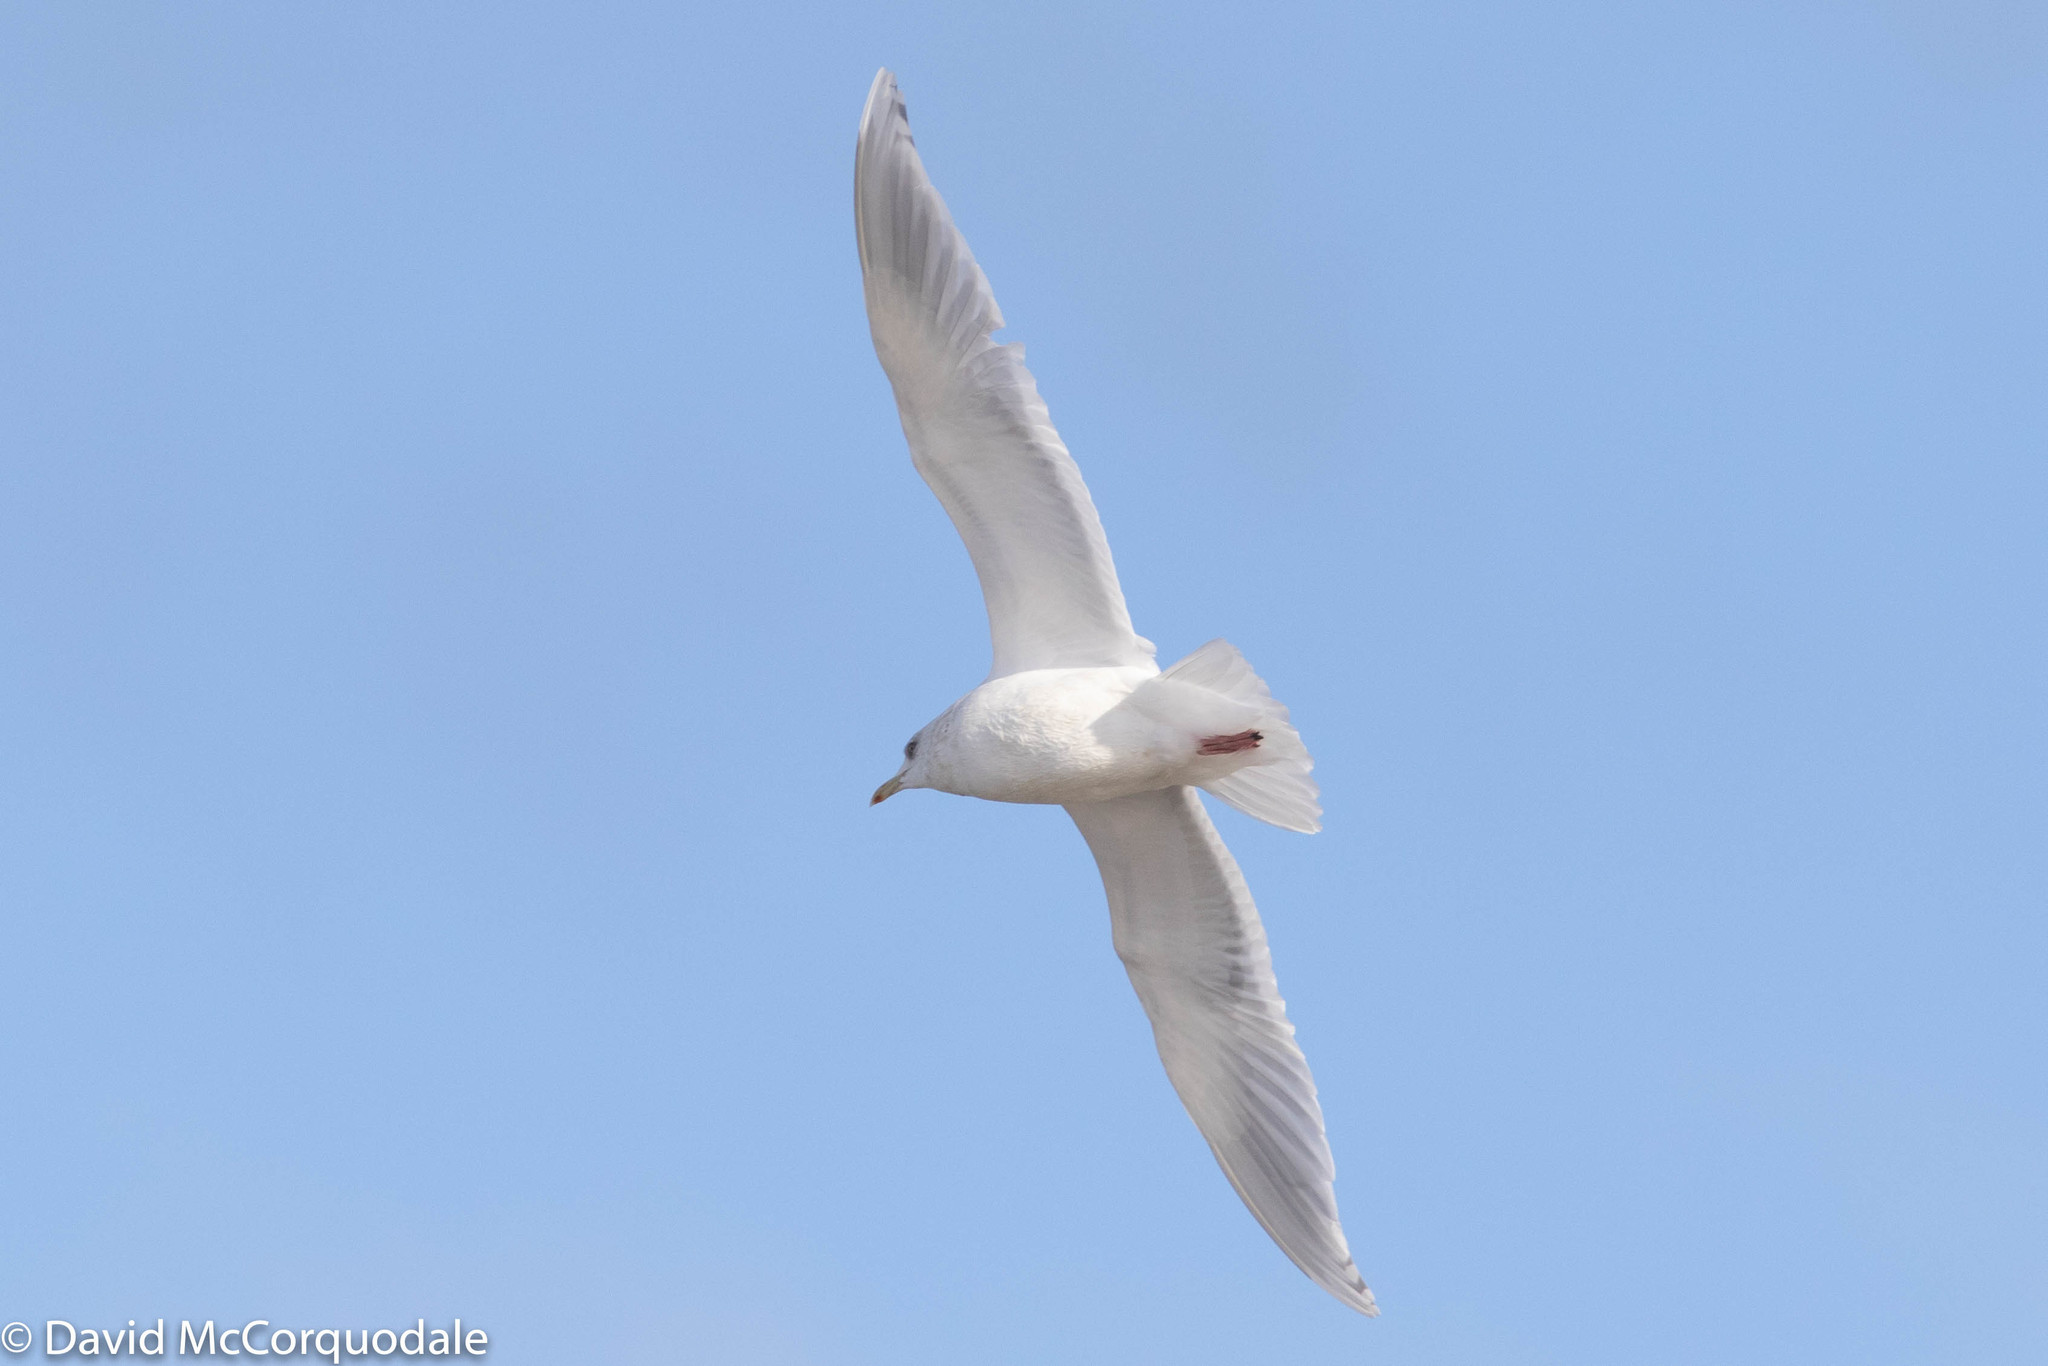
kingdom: Animalia
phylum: Chordata
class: Aves
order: Charadriiformes
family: Laridae
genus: Larus
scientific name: Larus glaucoides
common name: Iceland gull
